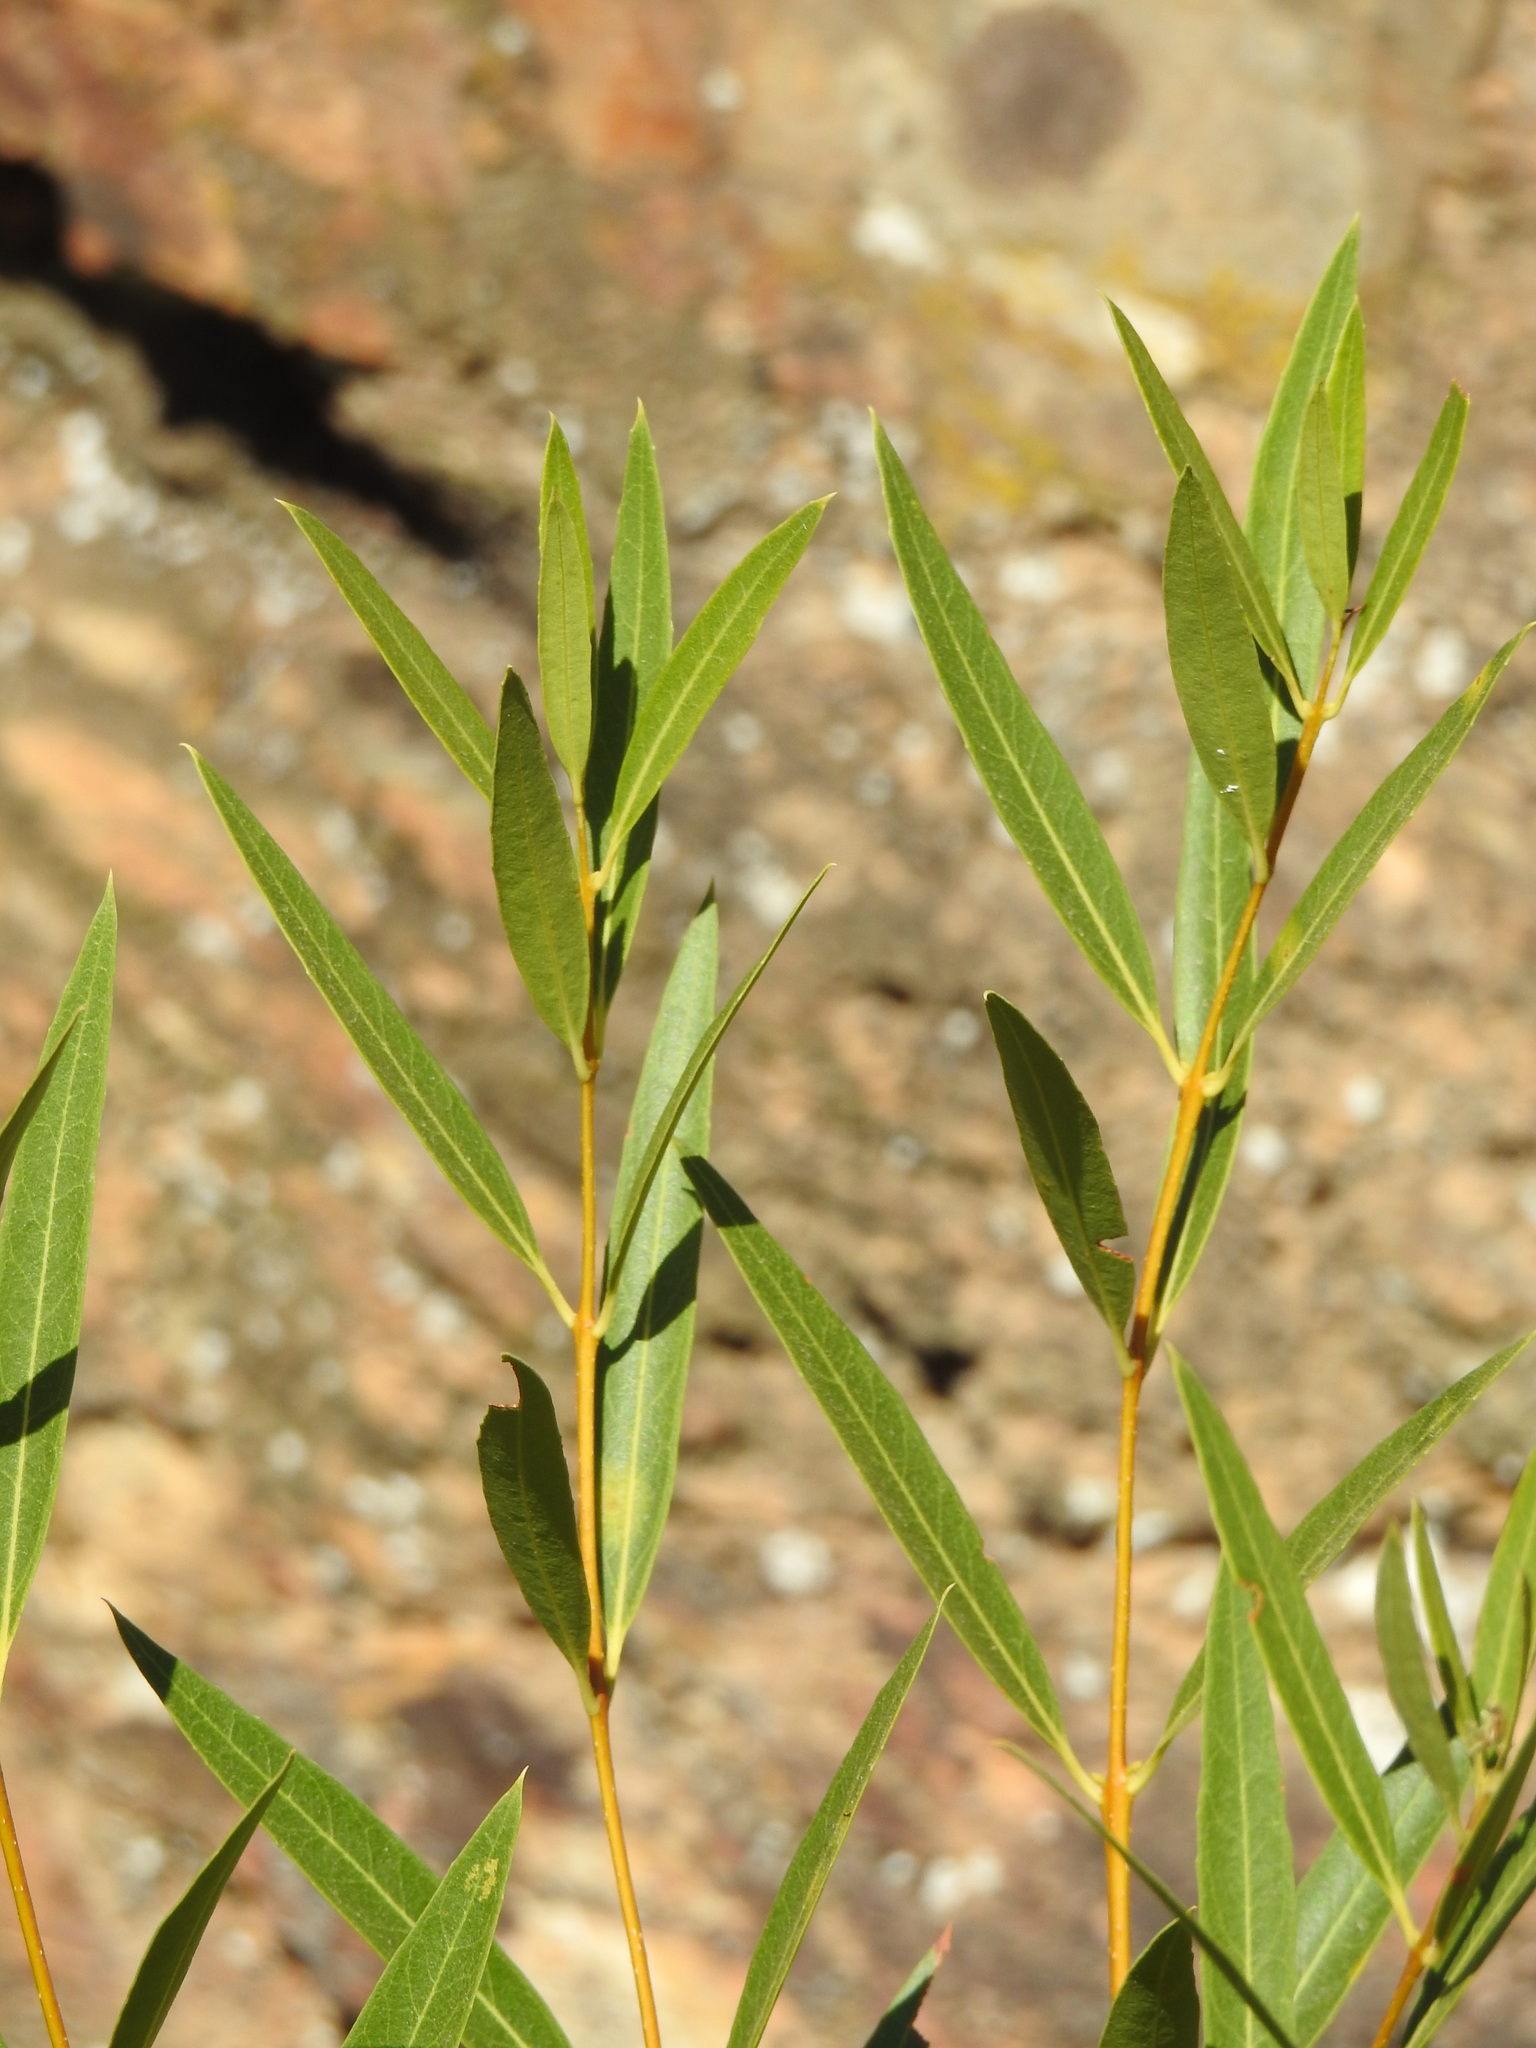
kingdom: Plantae
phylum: Tracheophyta
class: Magnoliopsida
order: Lamiales
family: Oleaceae
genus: Phillyrea
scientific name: Phillyrea angustifolia
